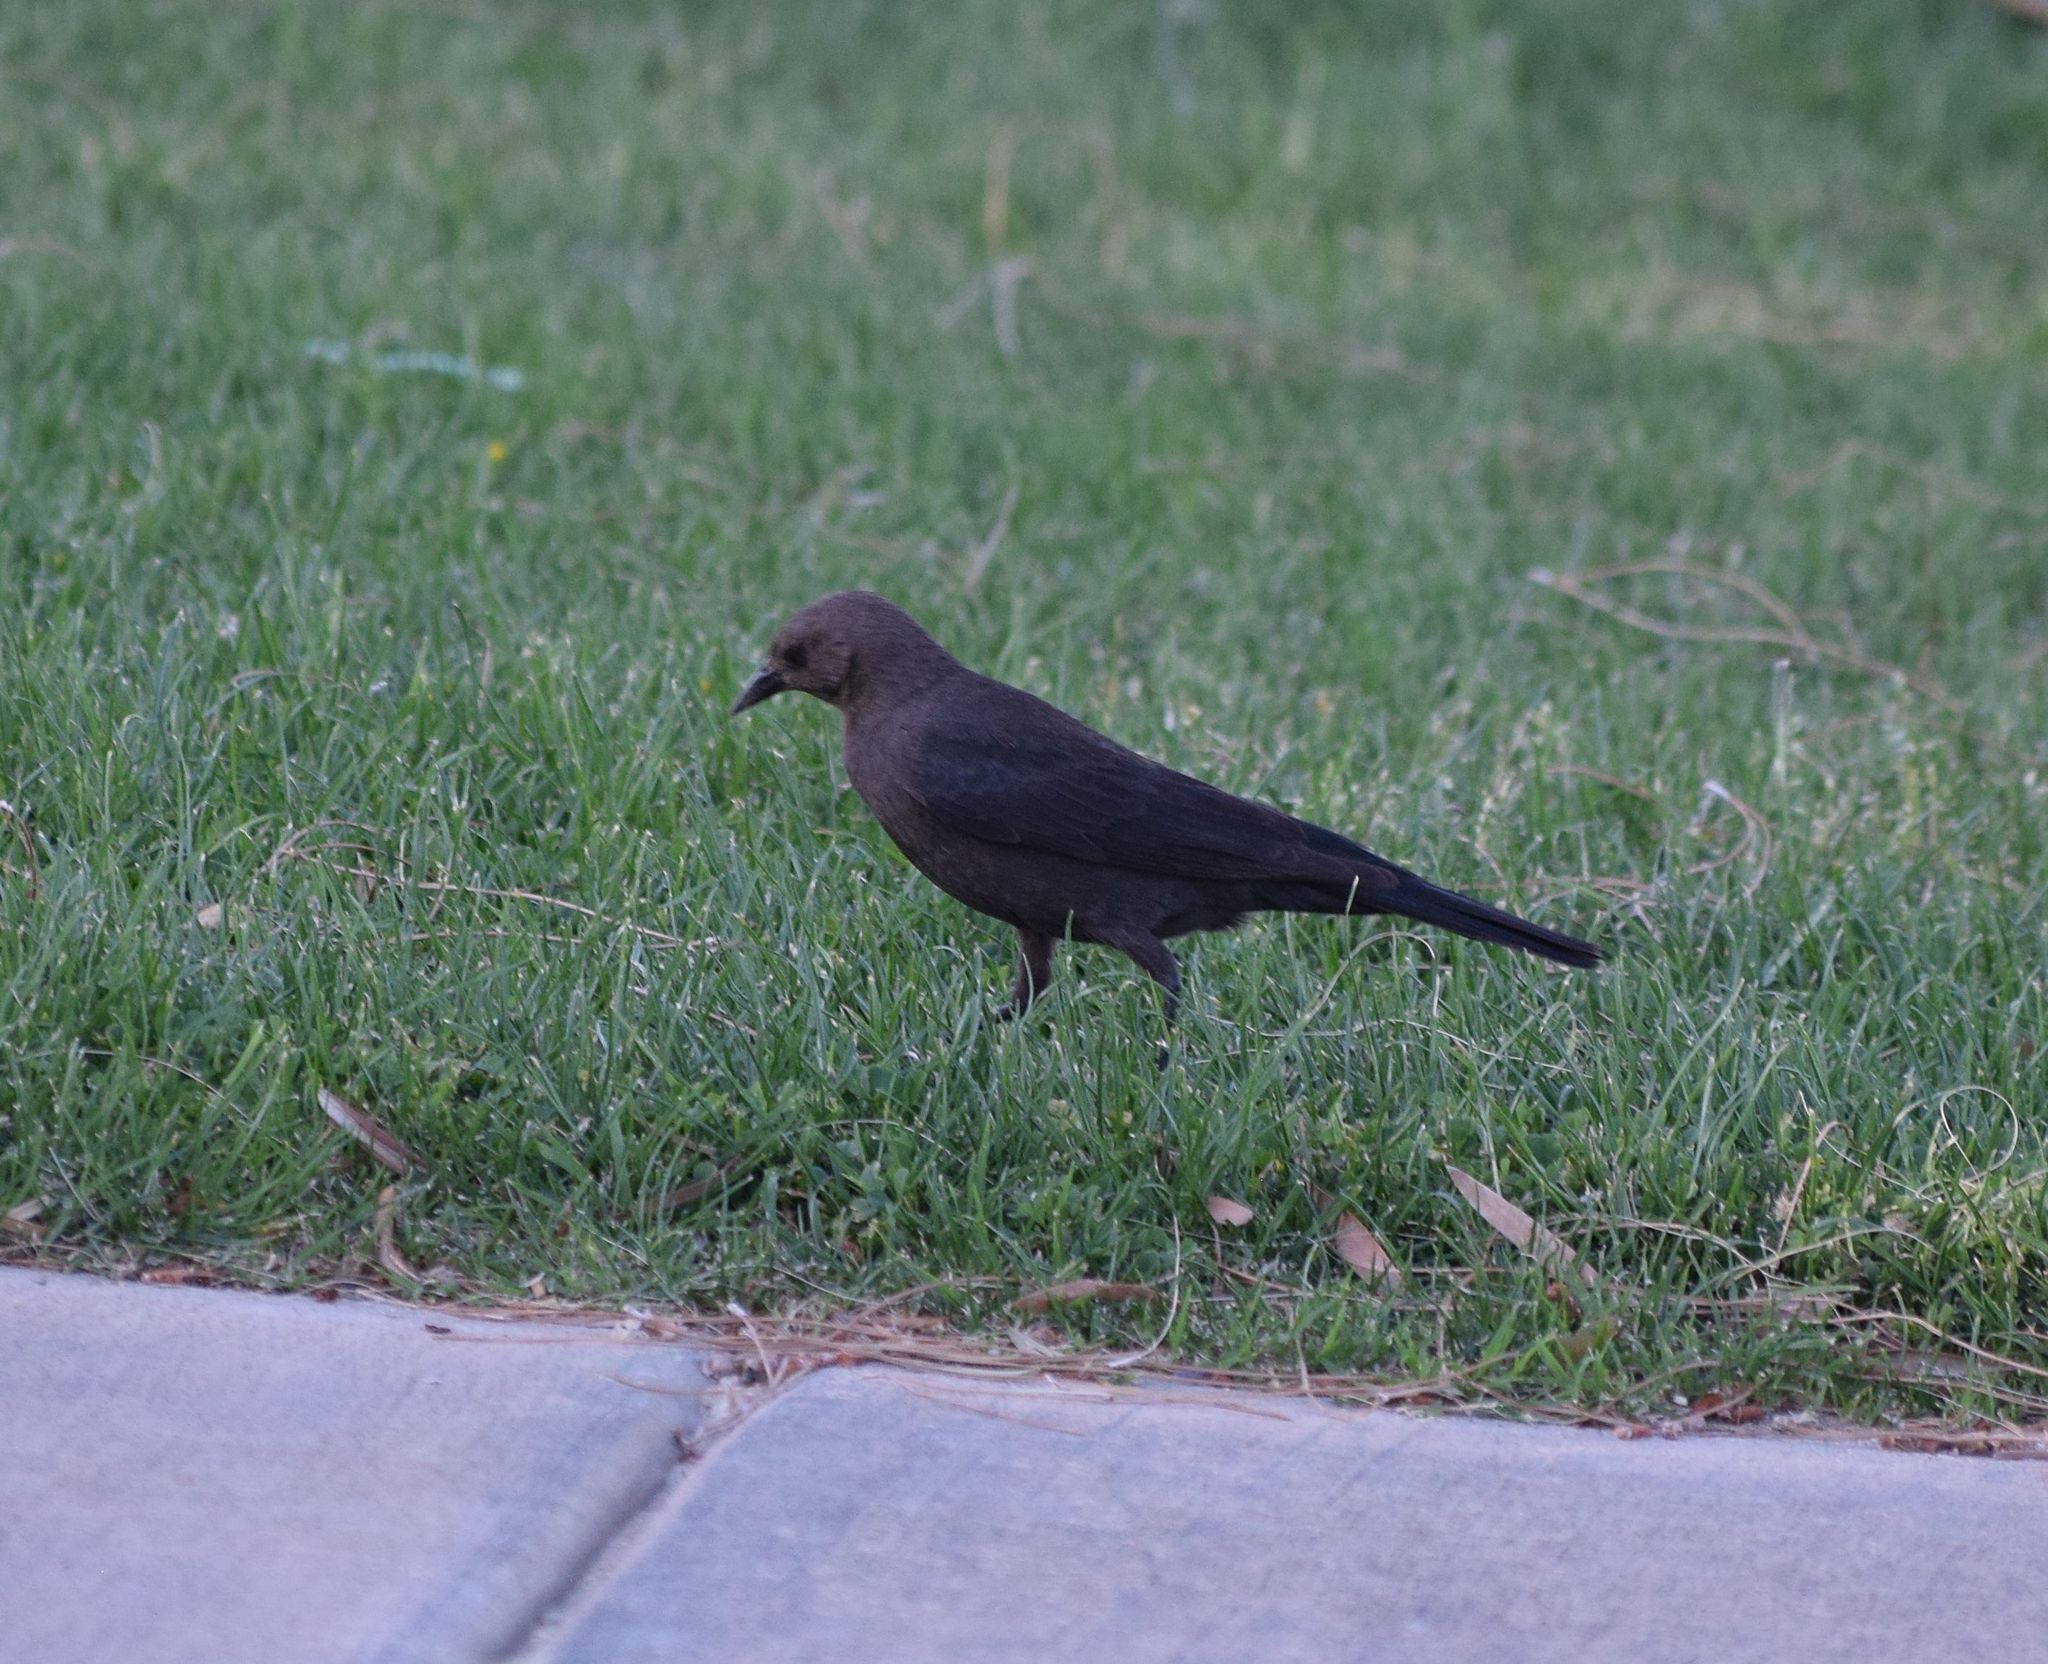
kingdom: Animalia
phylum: Chordata
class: Aves
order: Passeriformes
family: Icteridae
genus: Euphagus
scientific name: Euphagus cyanocephalus
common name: Brewer's blackbird
